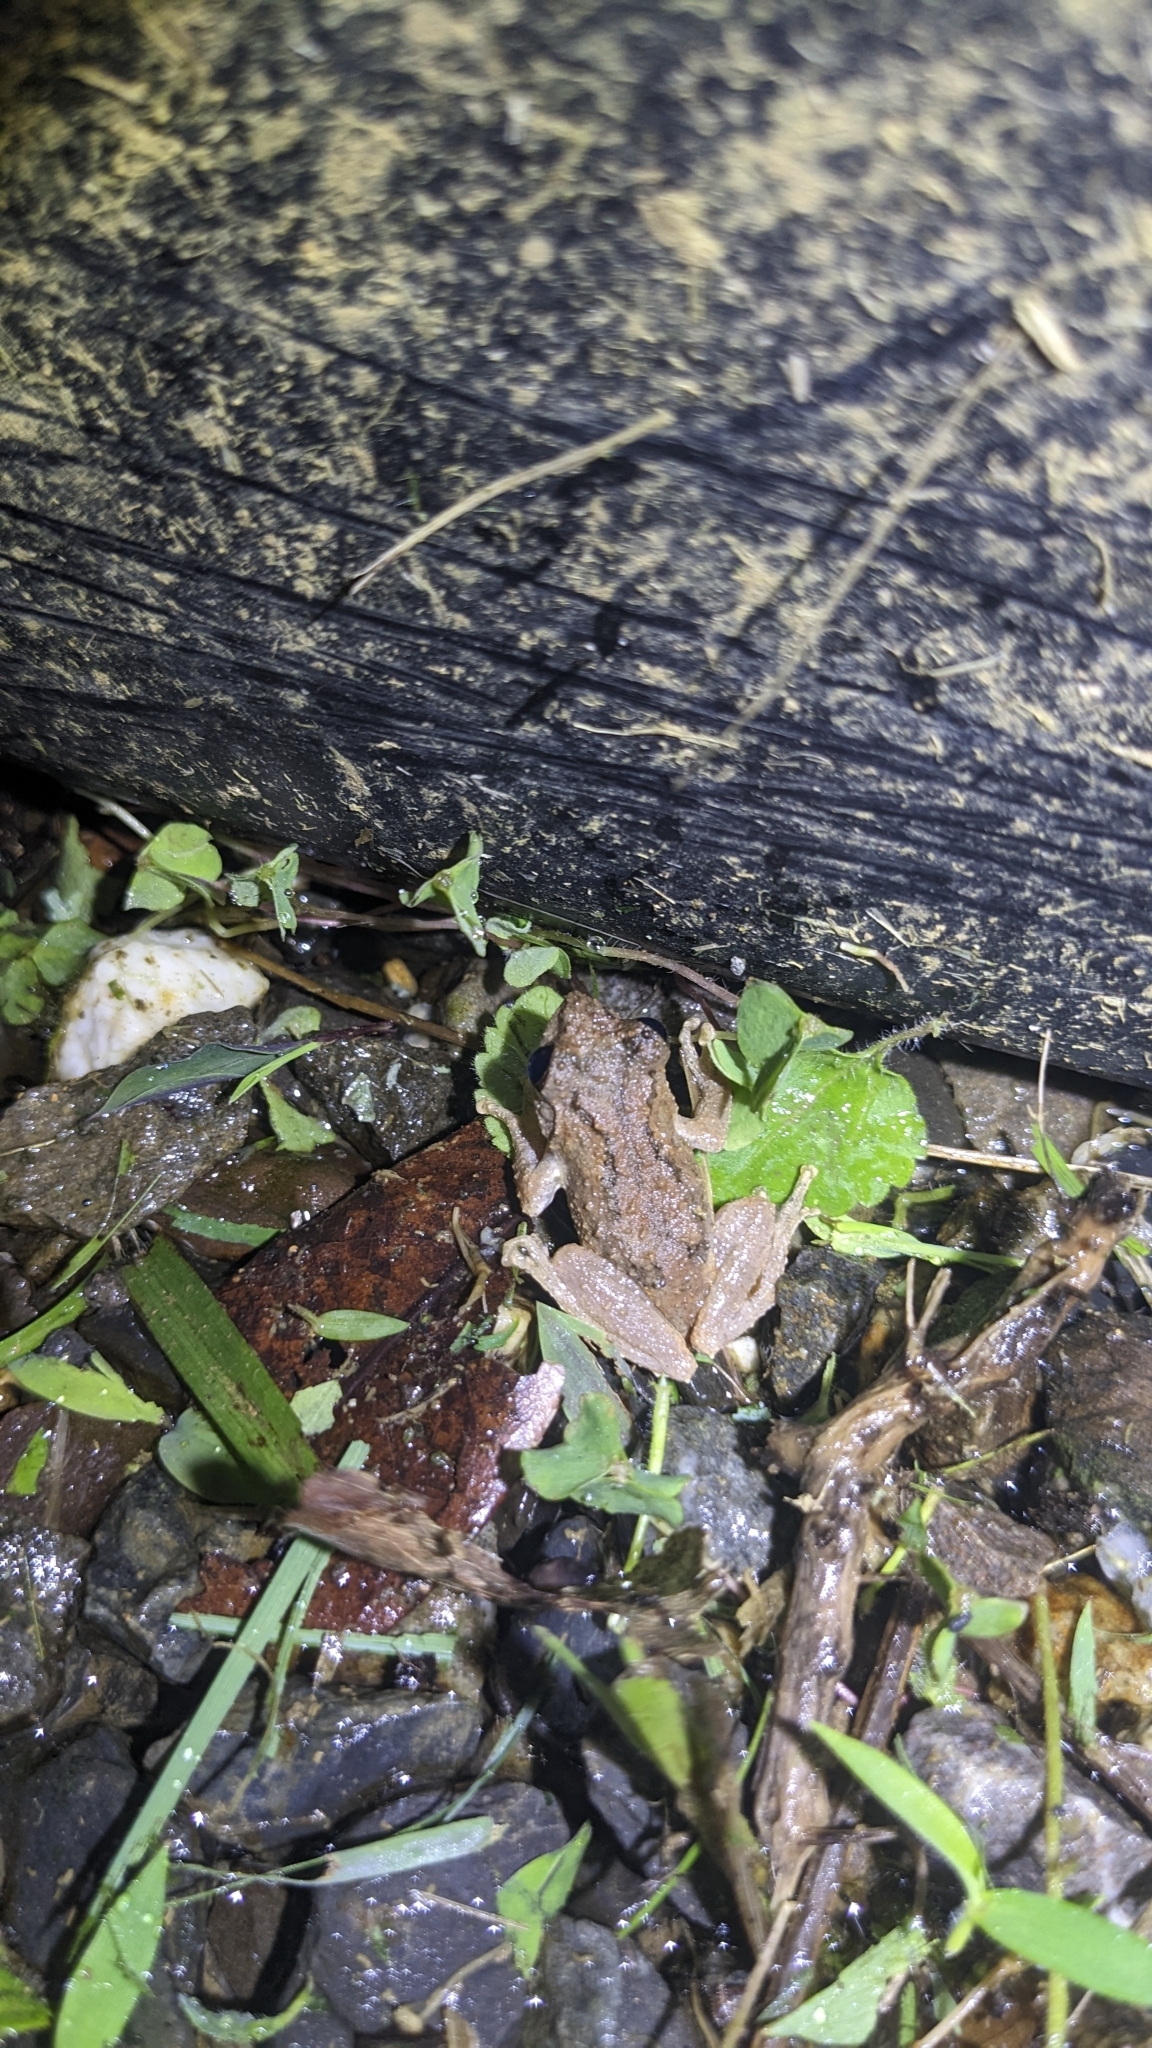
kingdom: Animalia
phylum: Chordata
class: Amphibia
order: Anura
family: Rhacophoridae
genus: Kurixalus
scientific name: Kurixalus idiootocus
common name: Temple treefrog
